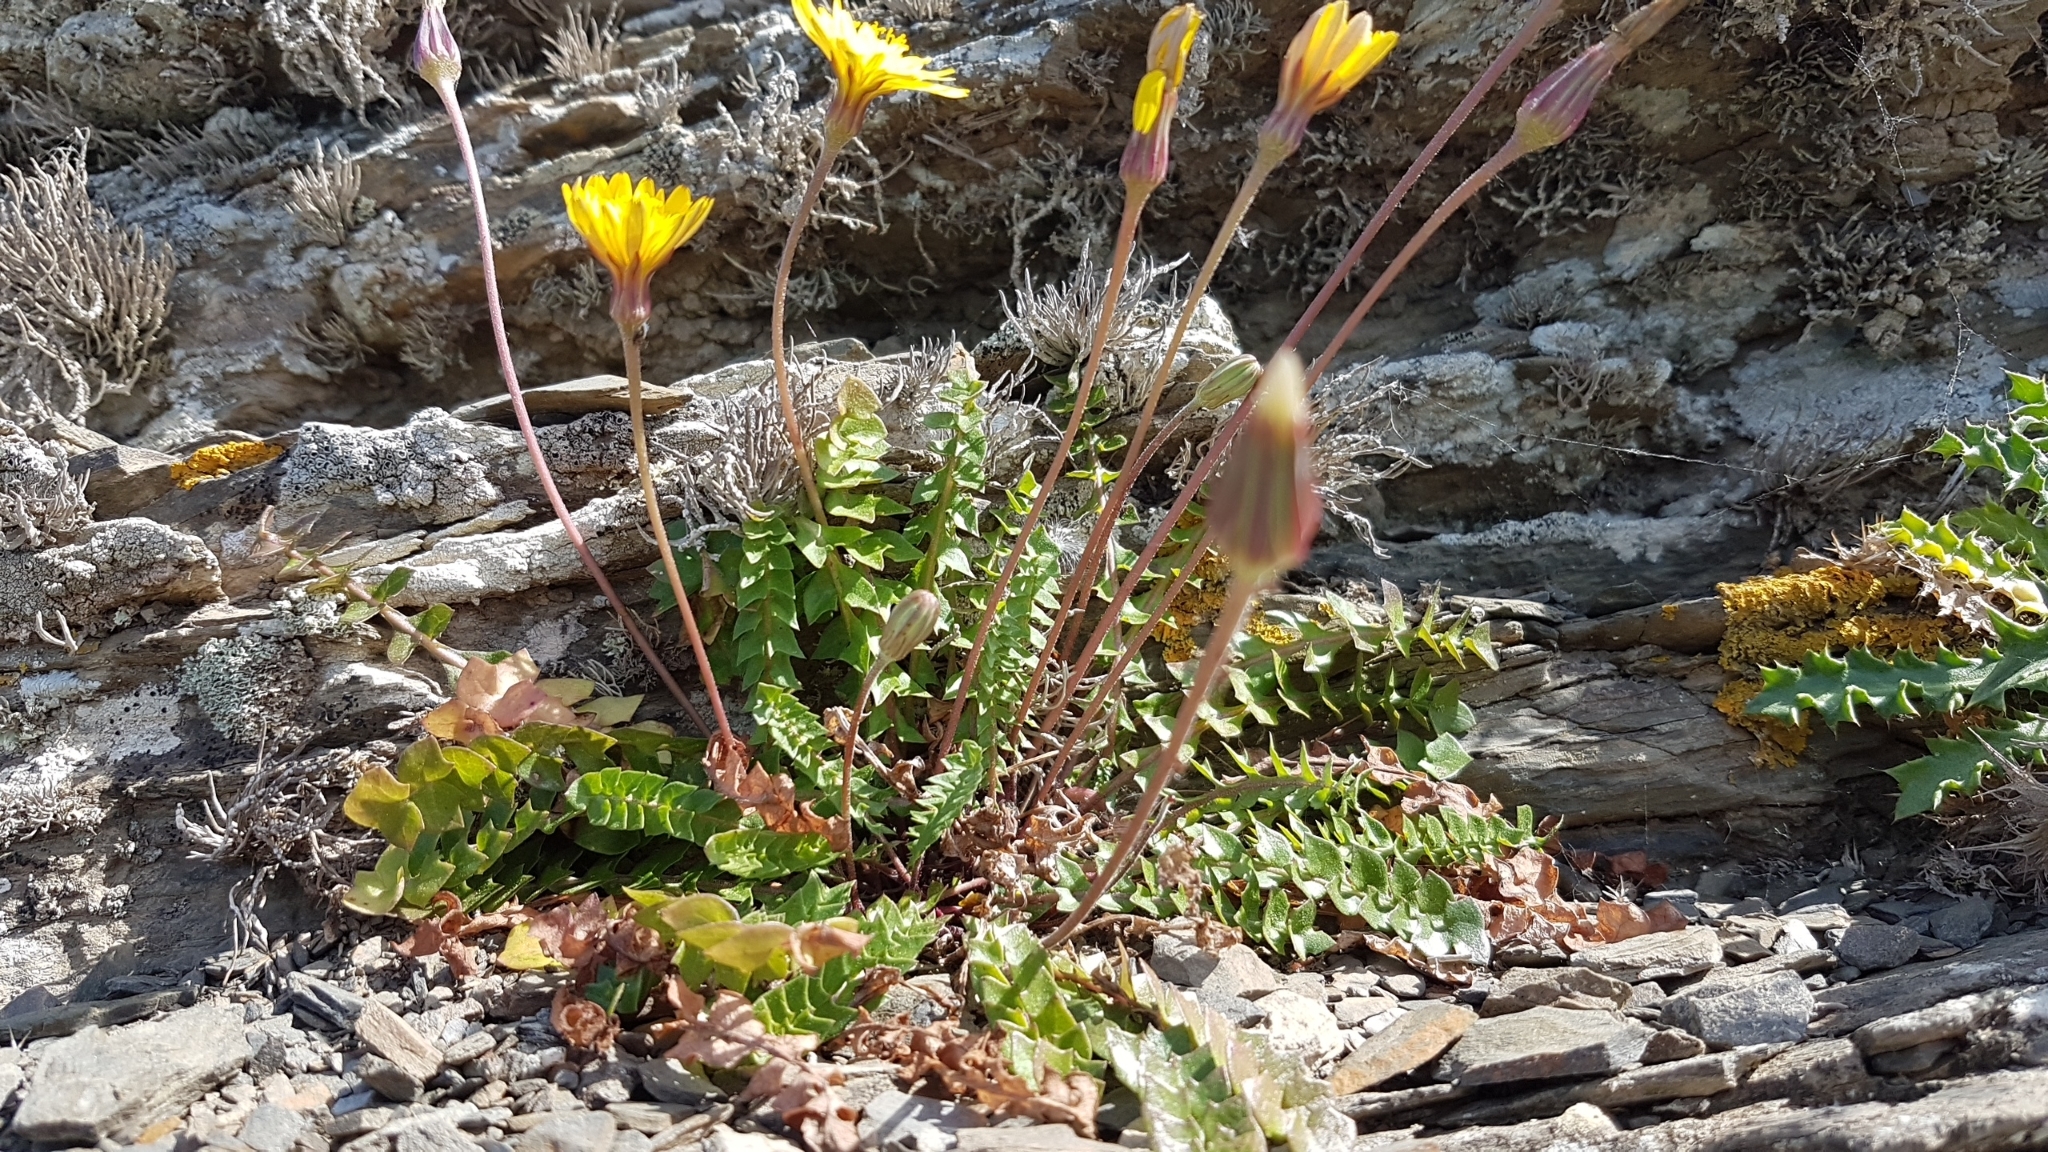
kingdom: Plantae
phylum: Tracheophyta
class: Magnoliopsida
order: Asterales
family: Asteraceae
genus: Hyoseris
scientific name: Hyoseris radiata
